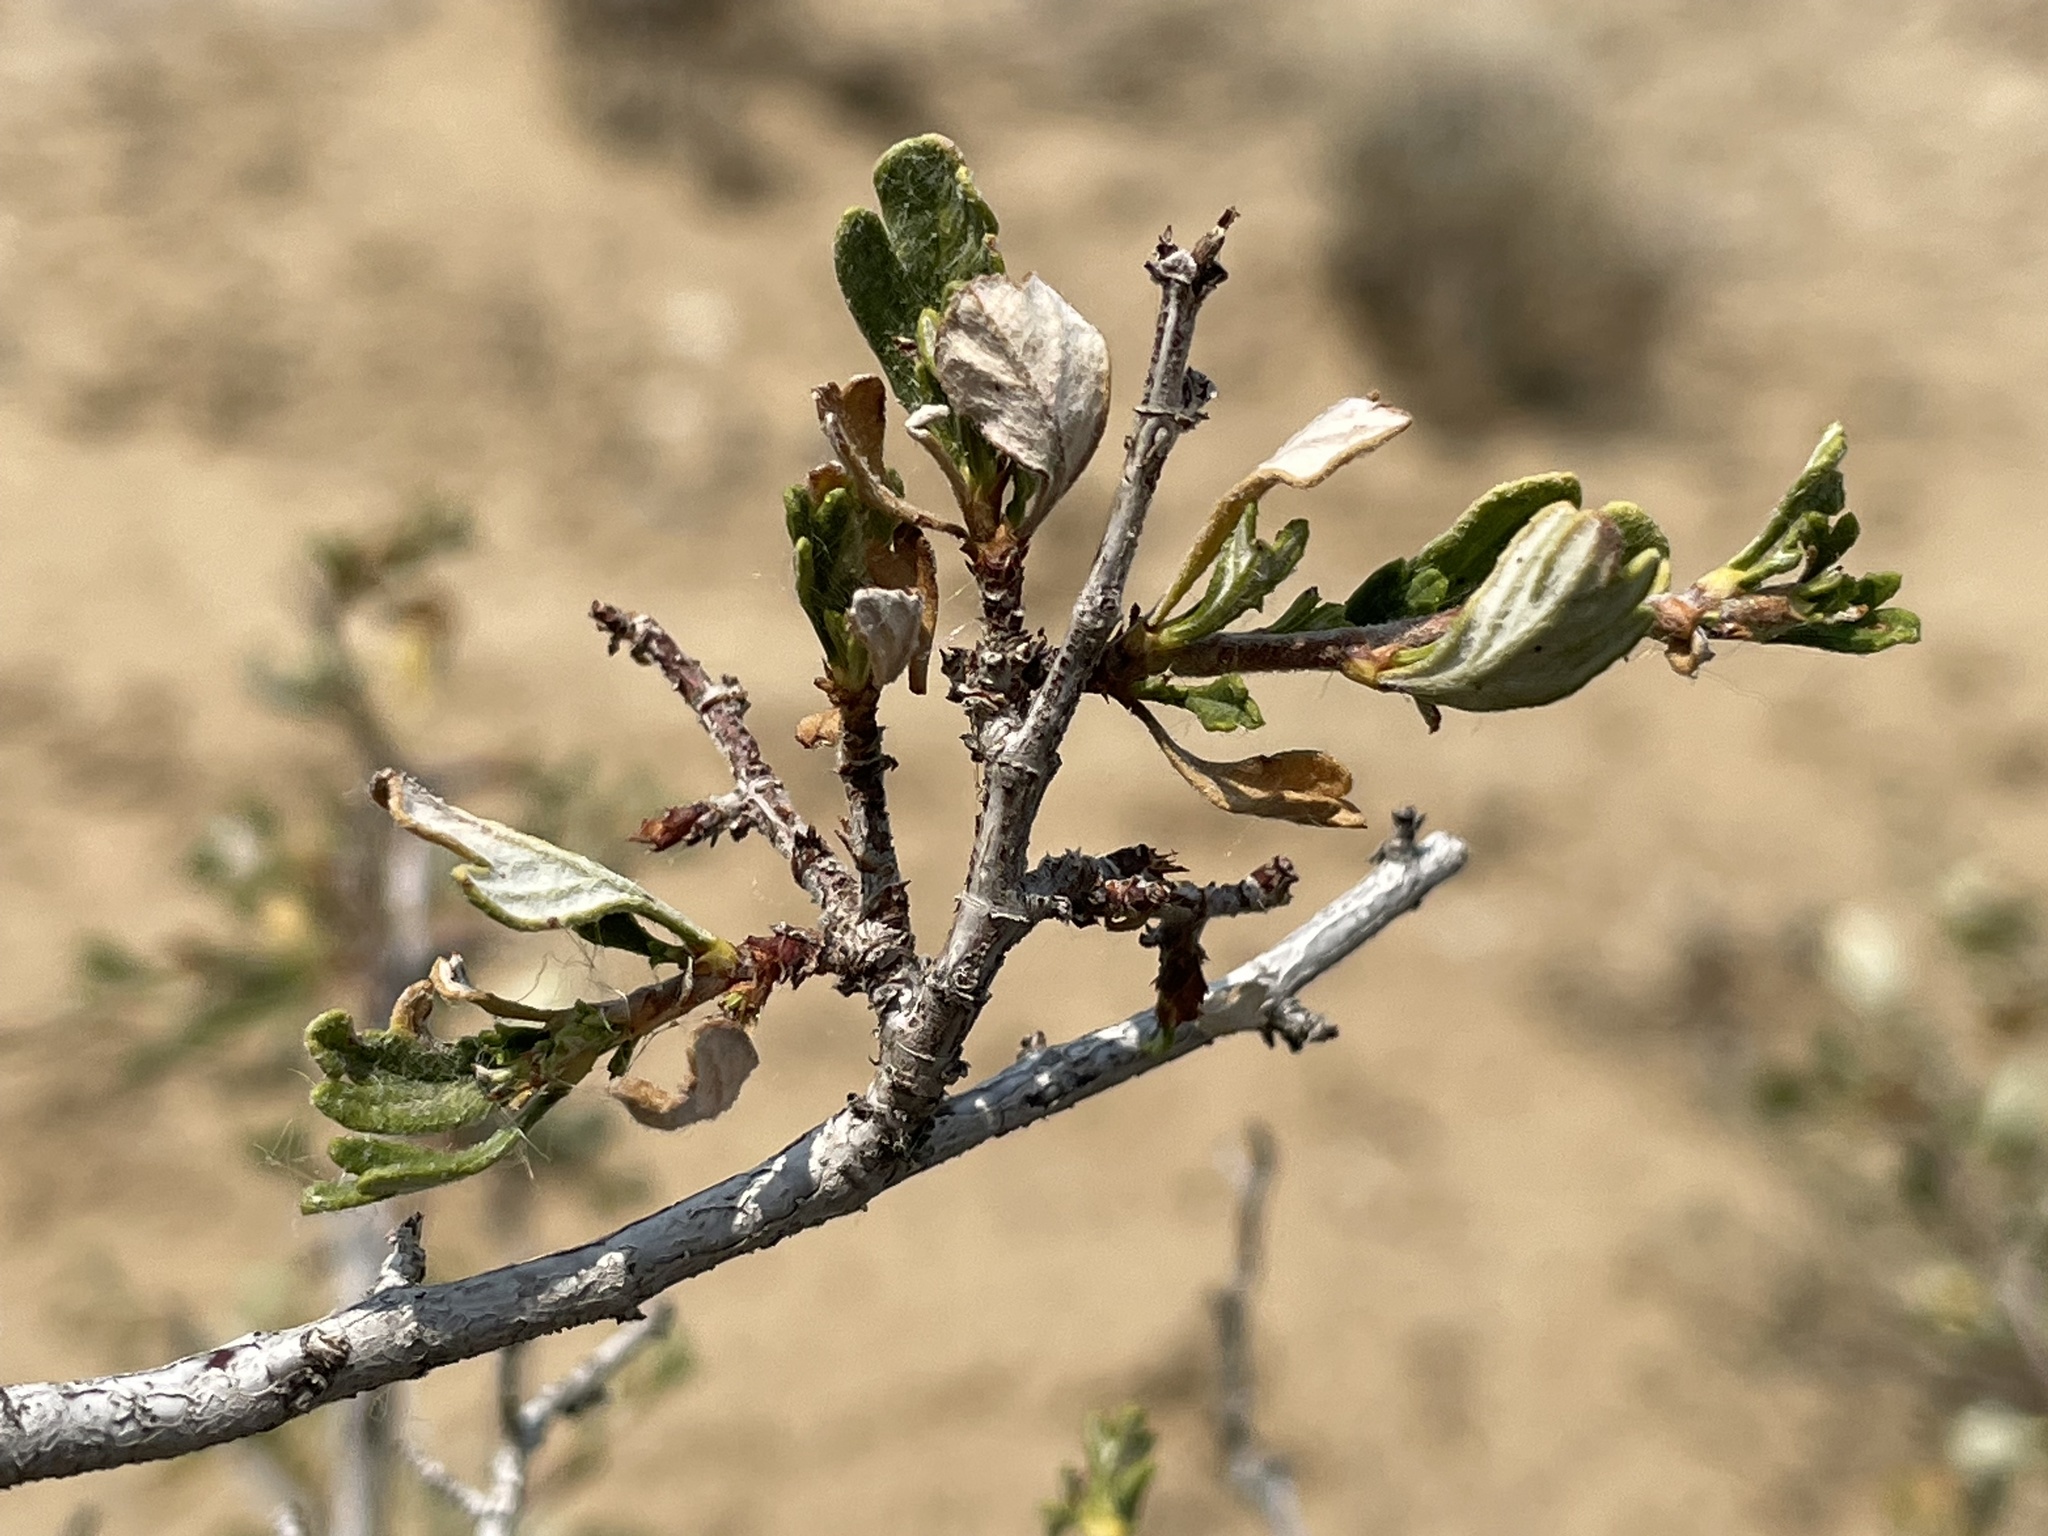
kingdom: Plantae
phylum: Tracheophyta
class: Magnoliopsida
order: Rosales
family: Rosaceae
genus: Purshia
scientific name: Purshia tridentata
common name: Antelope bitterbrush
